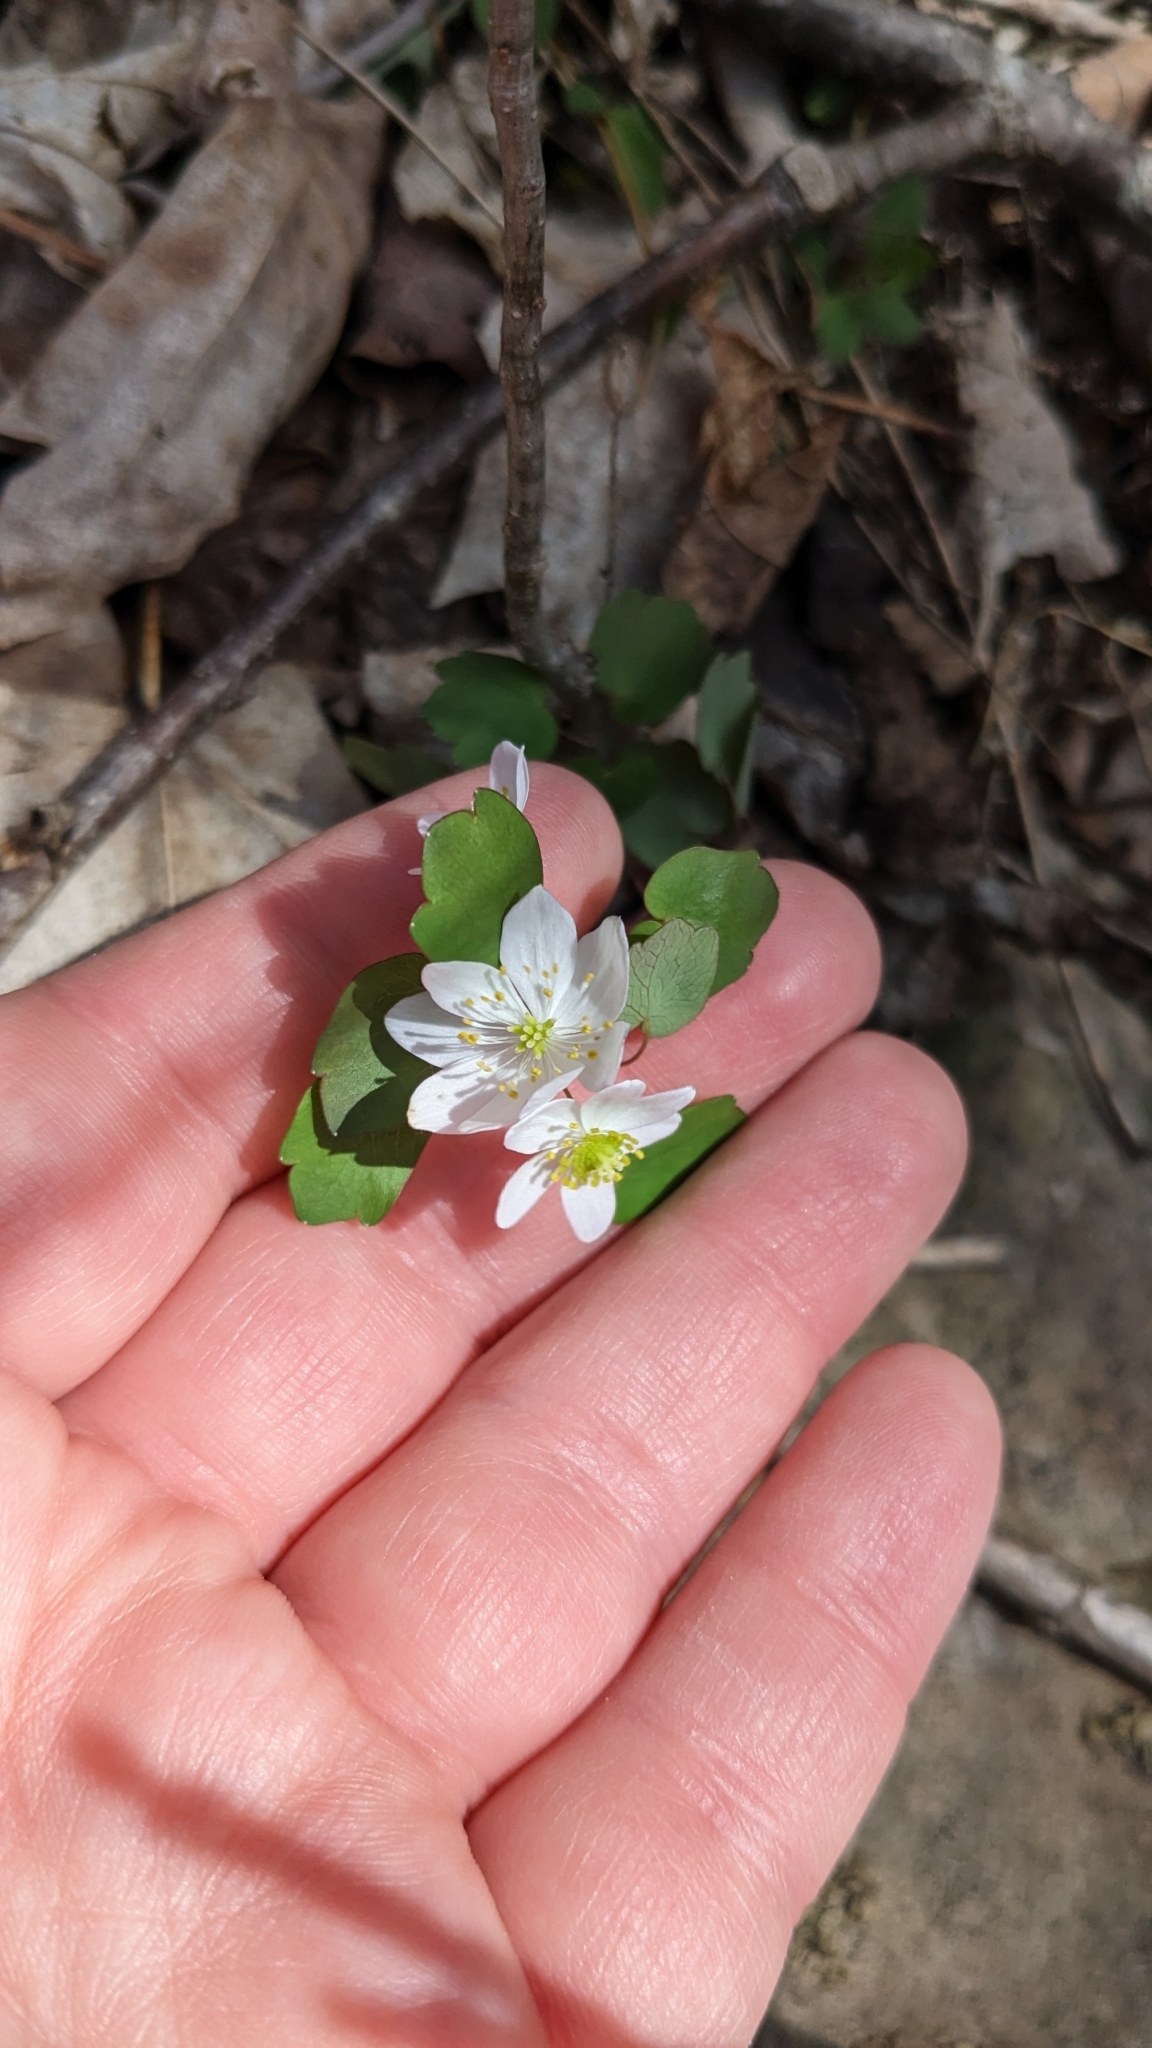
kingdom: Plantae
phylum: Tracheophyta
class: Magnoliopsida
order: Ranunculales
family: Ranunculaceae
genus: Thalictrum
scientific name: Thalictrum thalictroides
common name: Rue-anemone
